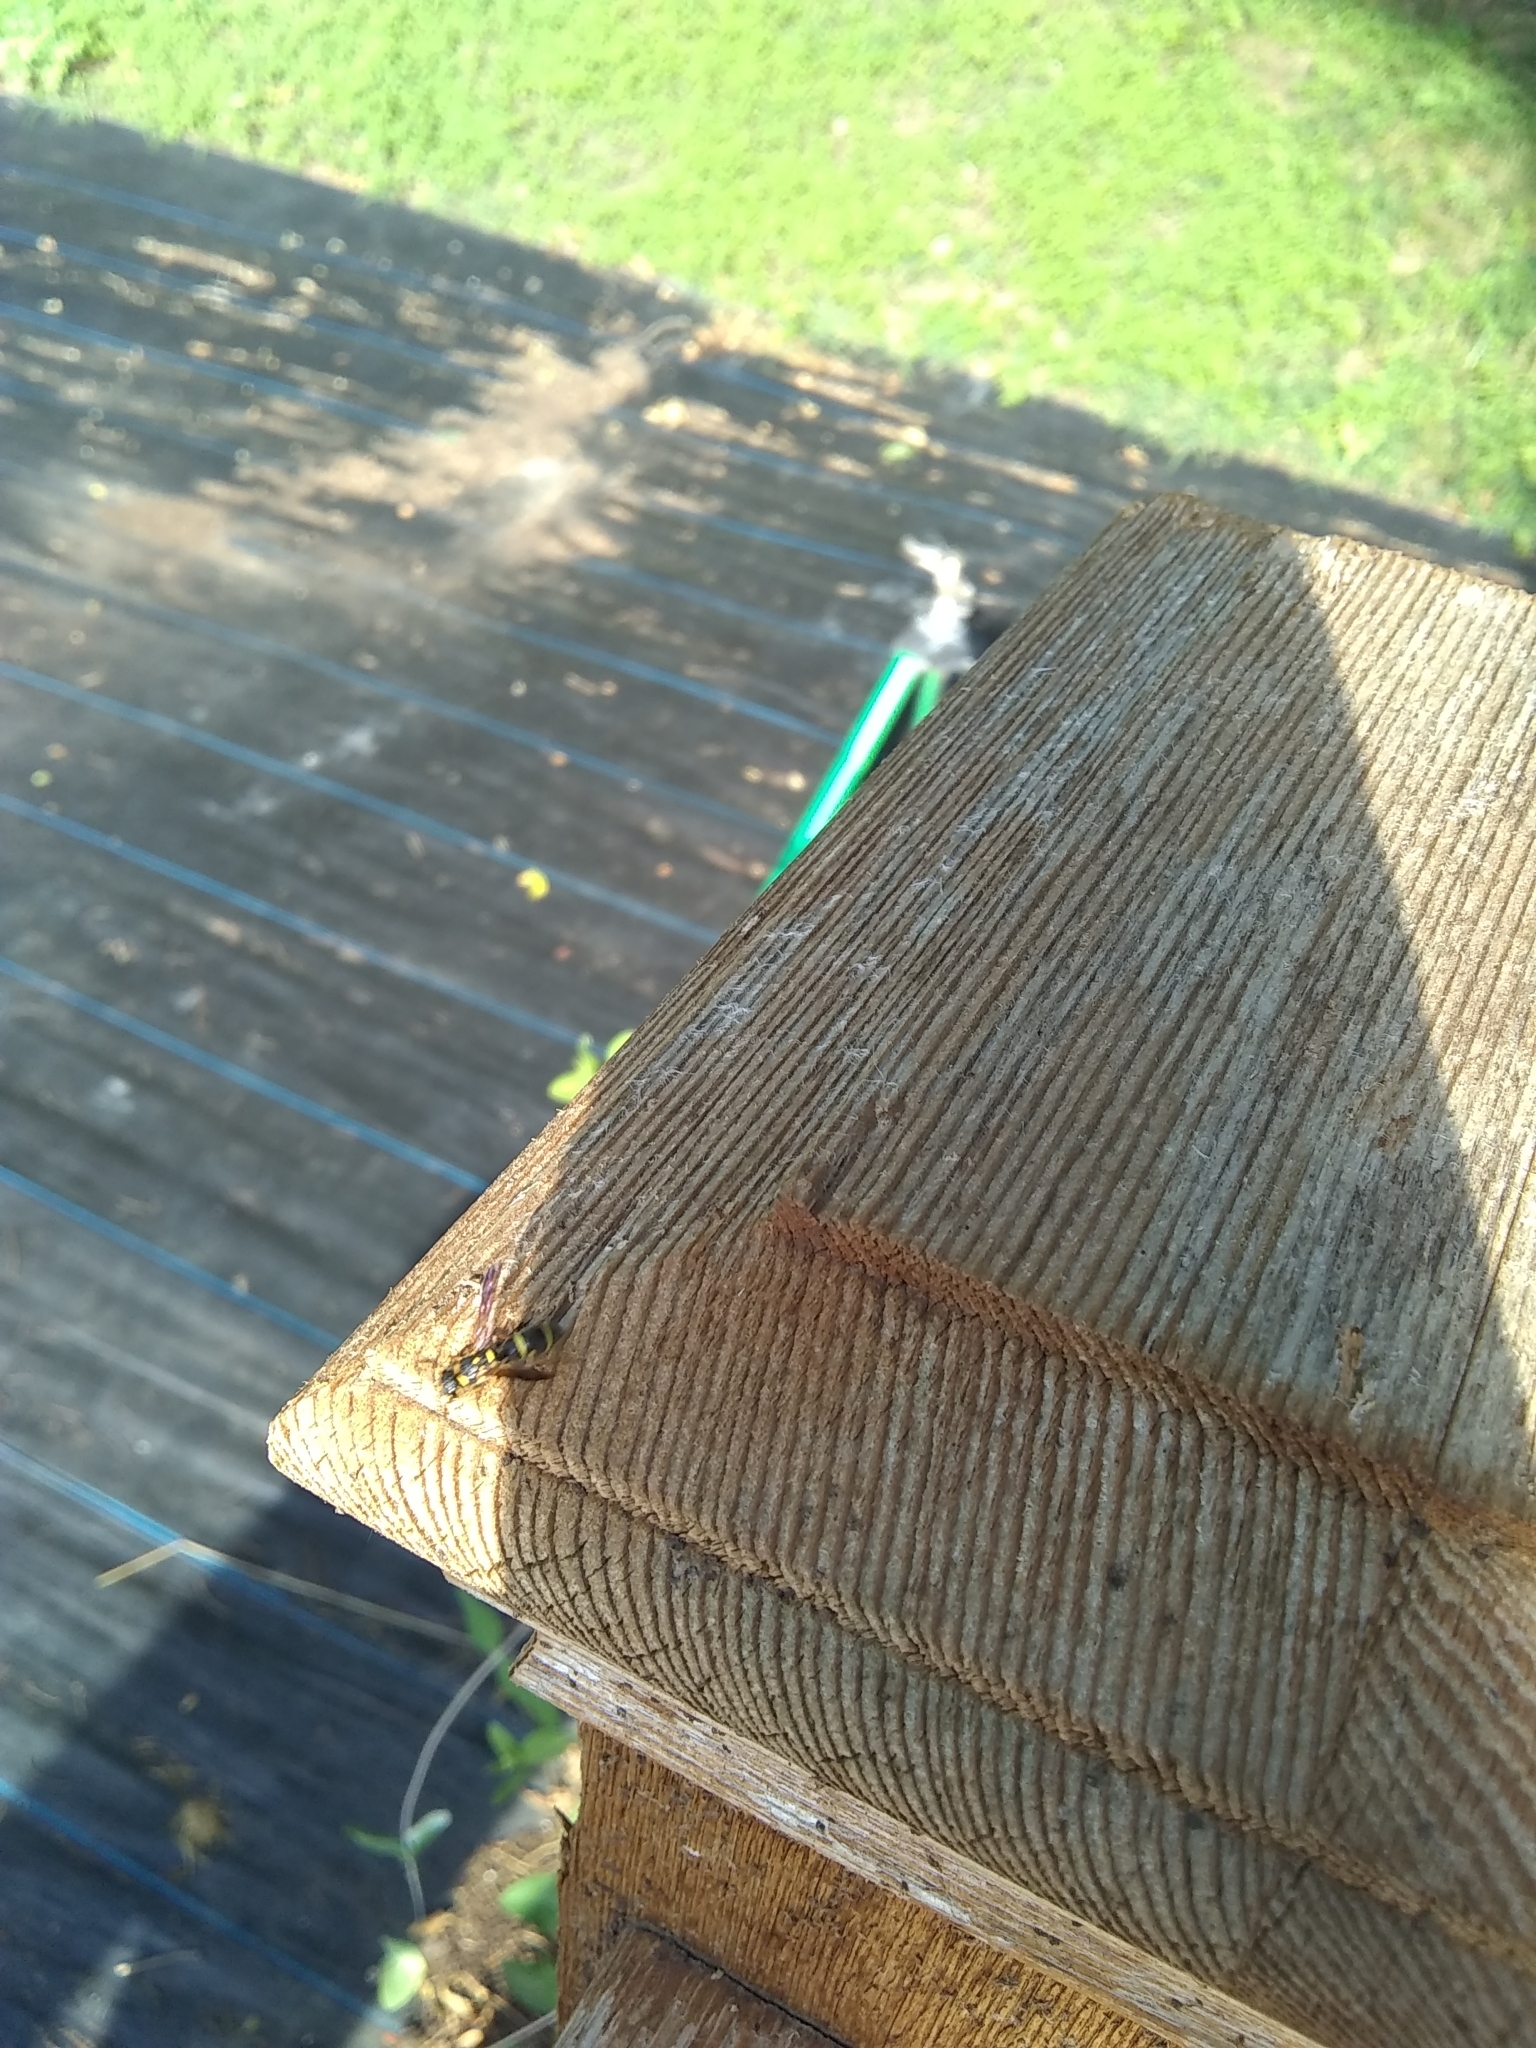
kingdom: Animalia
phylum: Arthropoda
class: Insecta
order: Hymenoptera
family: Eumenidae
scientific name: Eumenidae
